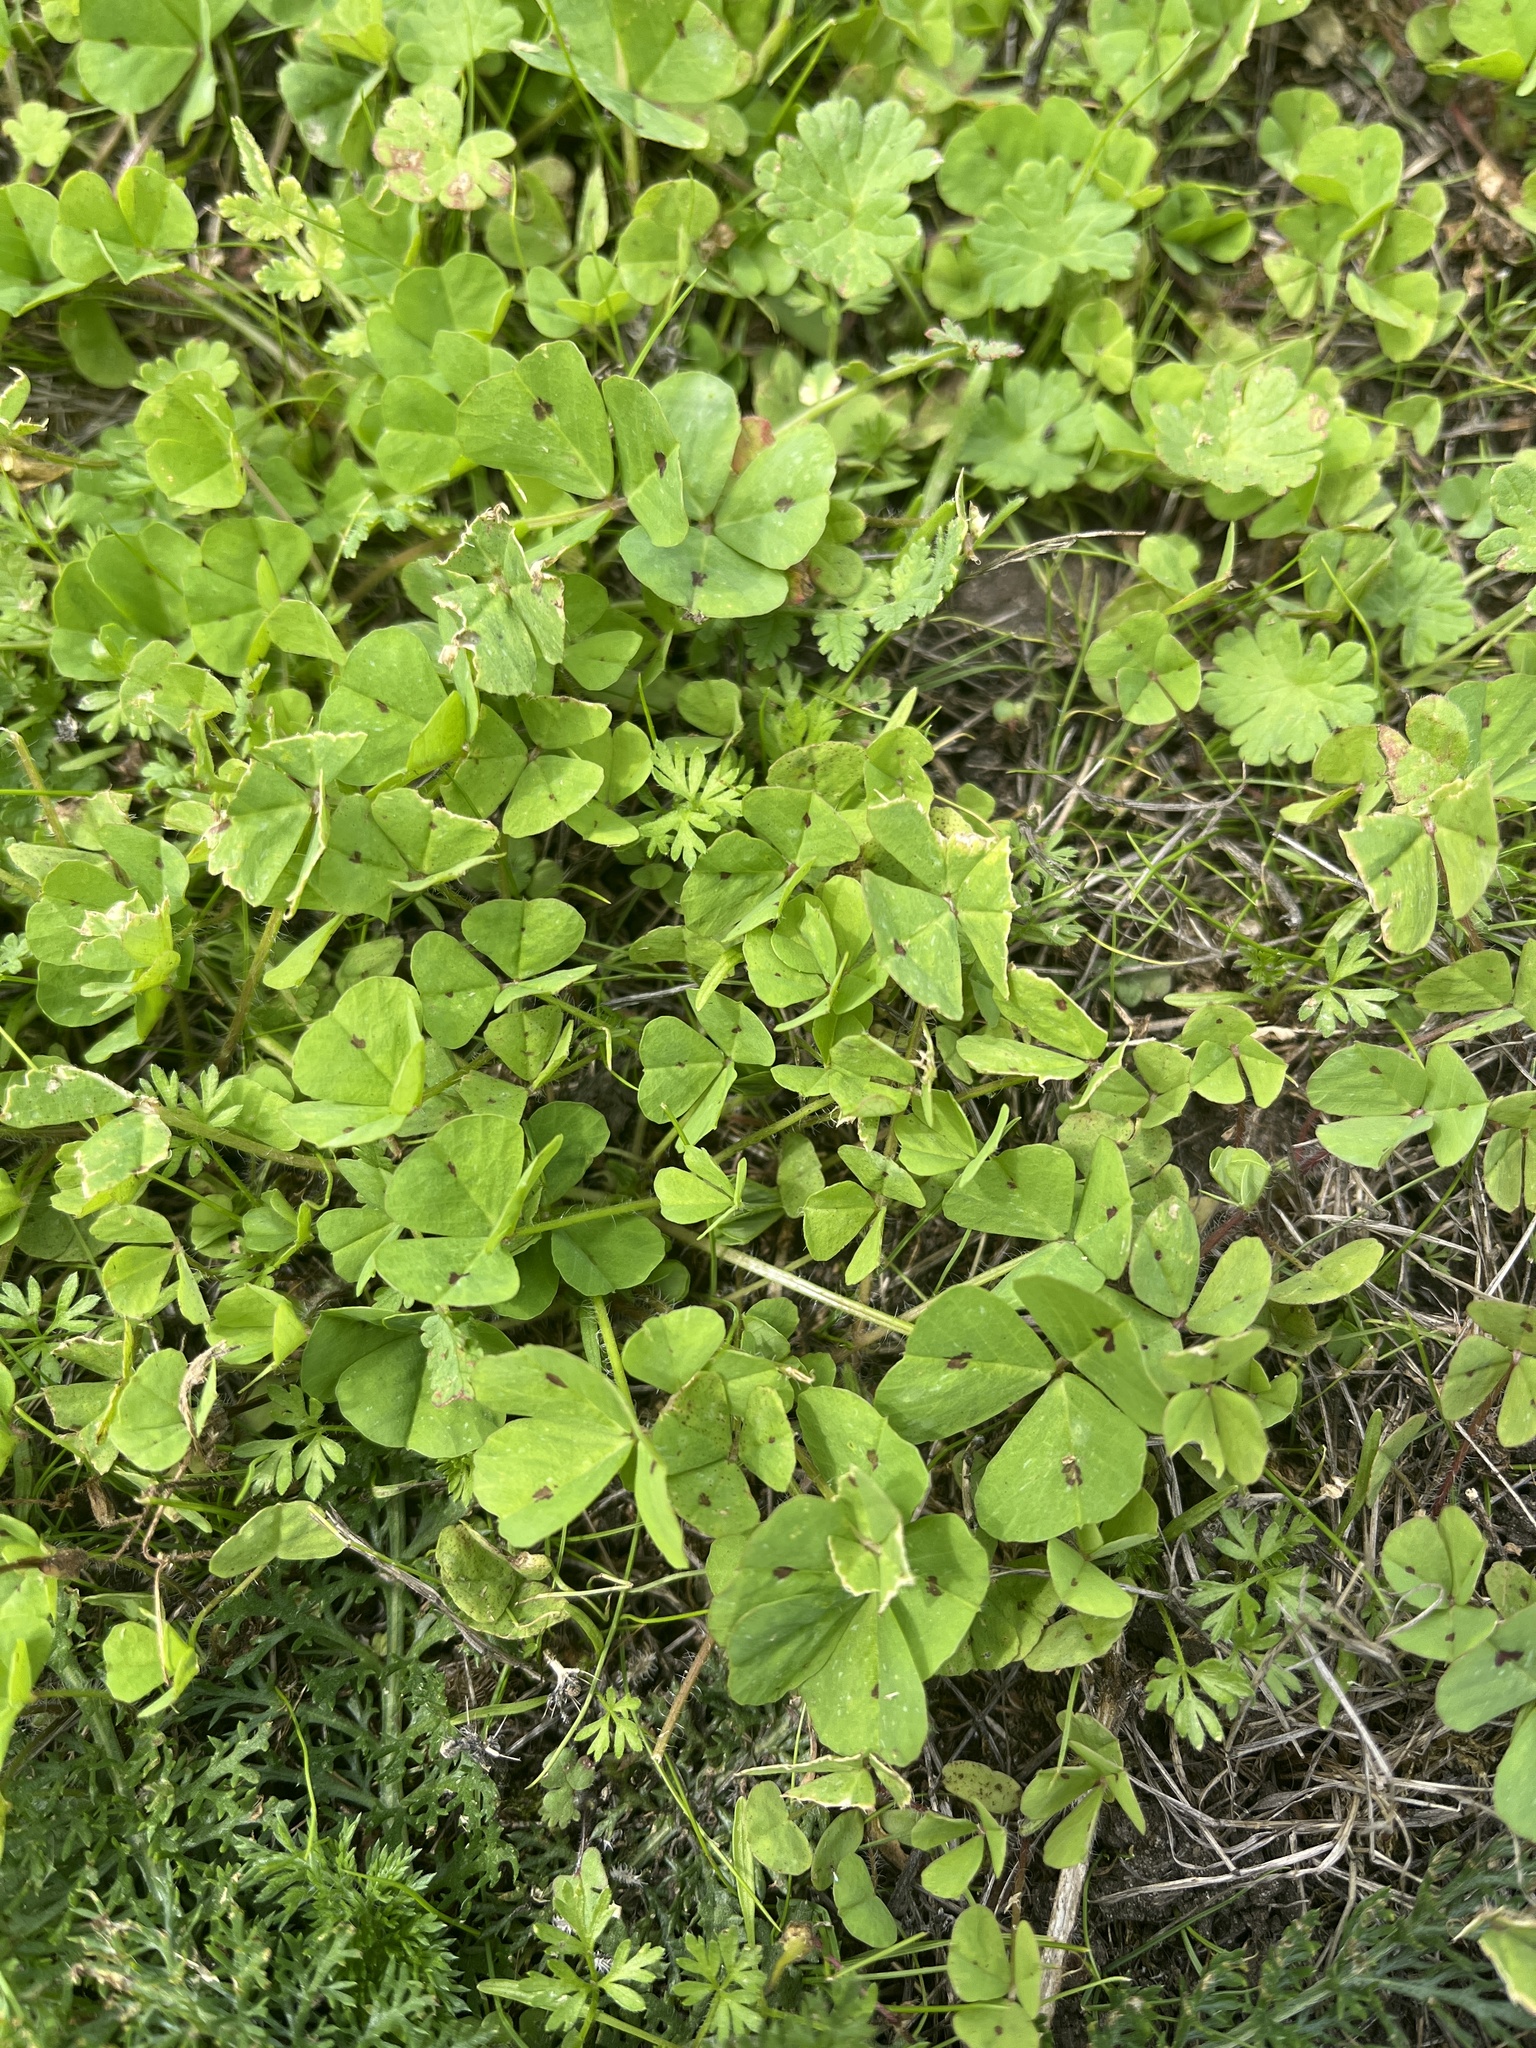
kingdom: Plantae
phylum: Tracheophyta
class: Magnoliopsida
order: Fabales
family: Fabaceae
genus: Medicago
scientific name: Medicago arabica
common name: Spotted medick
